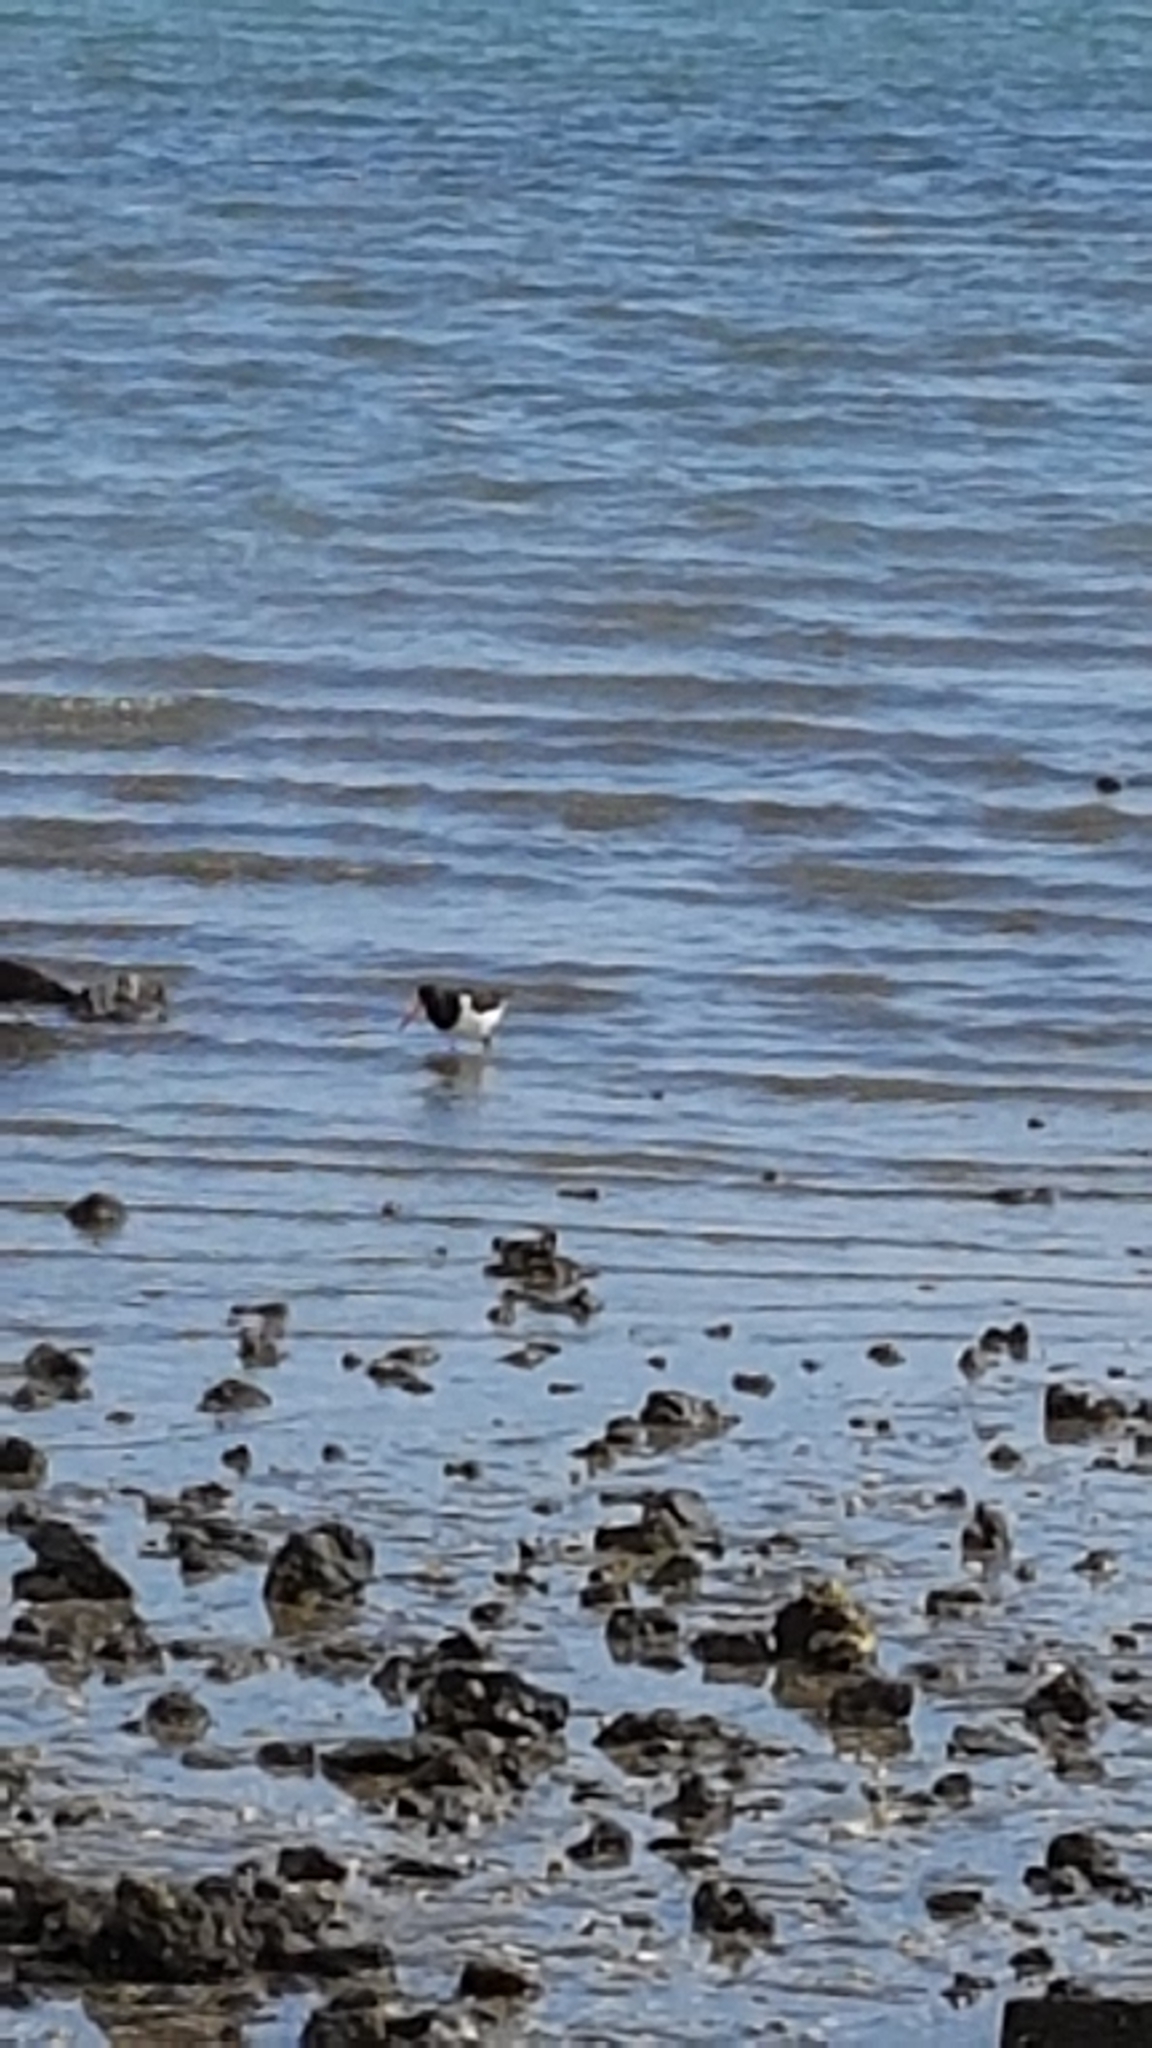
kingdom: Animalia
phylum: Chordata
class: Aves
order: Charadriiformes
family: Haematopodidae
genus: Haematopus
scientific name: Haematopus finschi
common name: South island oystercatcher
